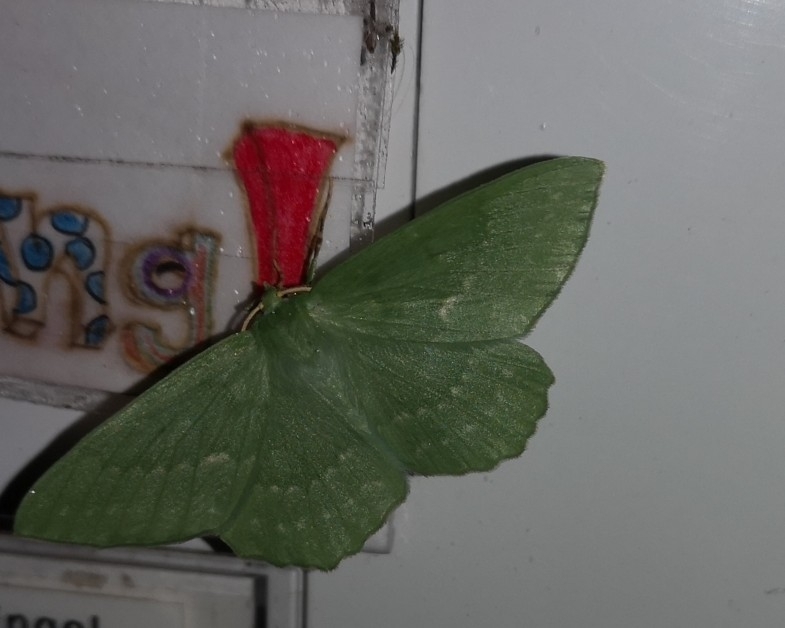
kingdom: Animalia
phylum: Arthropoda
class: Insecta
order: Lepidoptera
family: Geometridae
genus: Geometra
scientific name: Geometra papilionaria
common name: Large emerald
